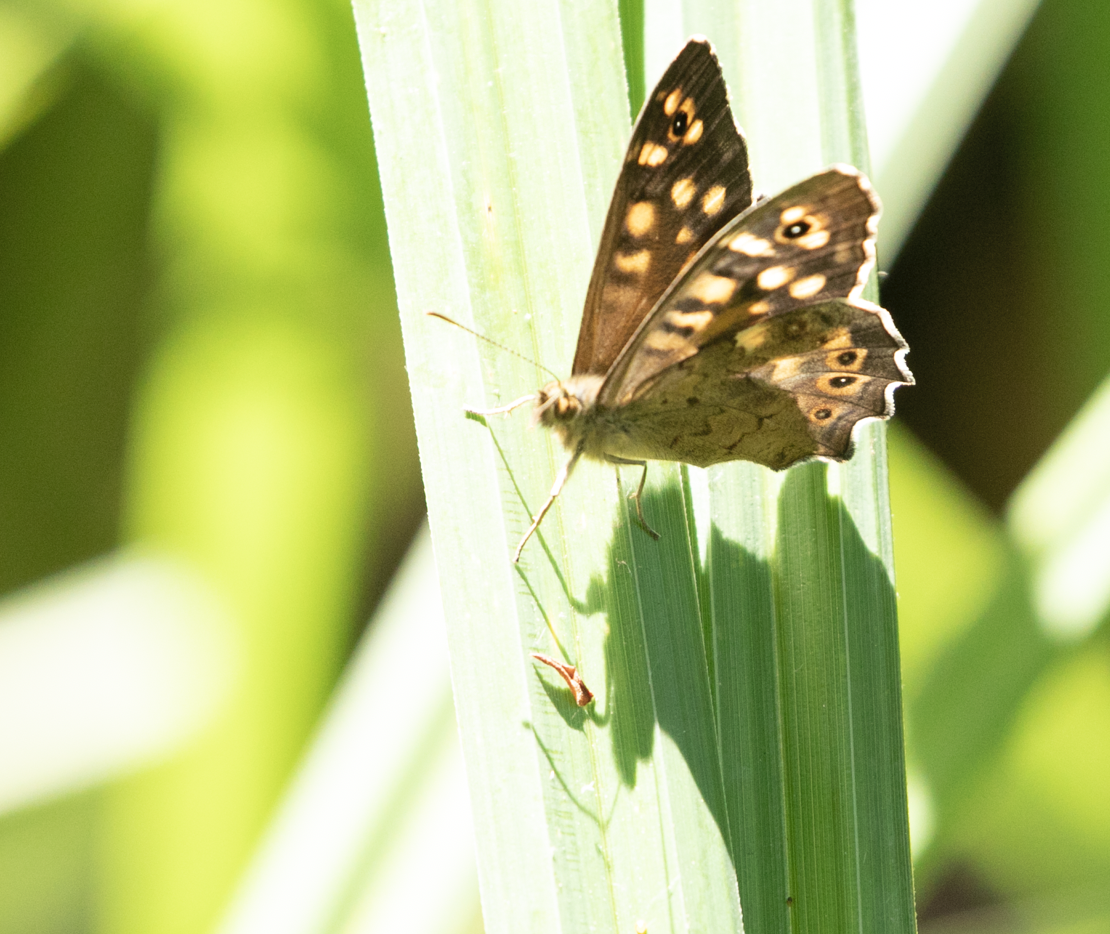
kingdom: Animalia
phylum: Arthropoda
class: Insecta
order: Lepidoptera
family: Nymphalidae
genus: Pararge
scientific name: Pararge aegeria
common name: Speckled wood
